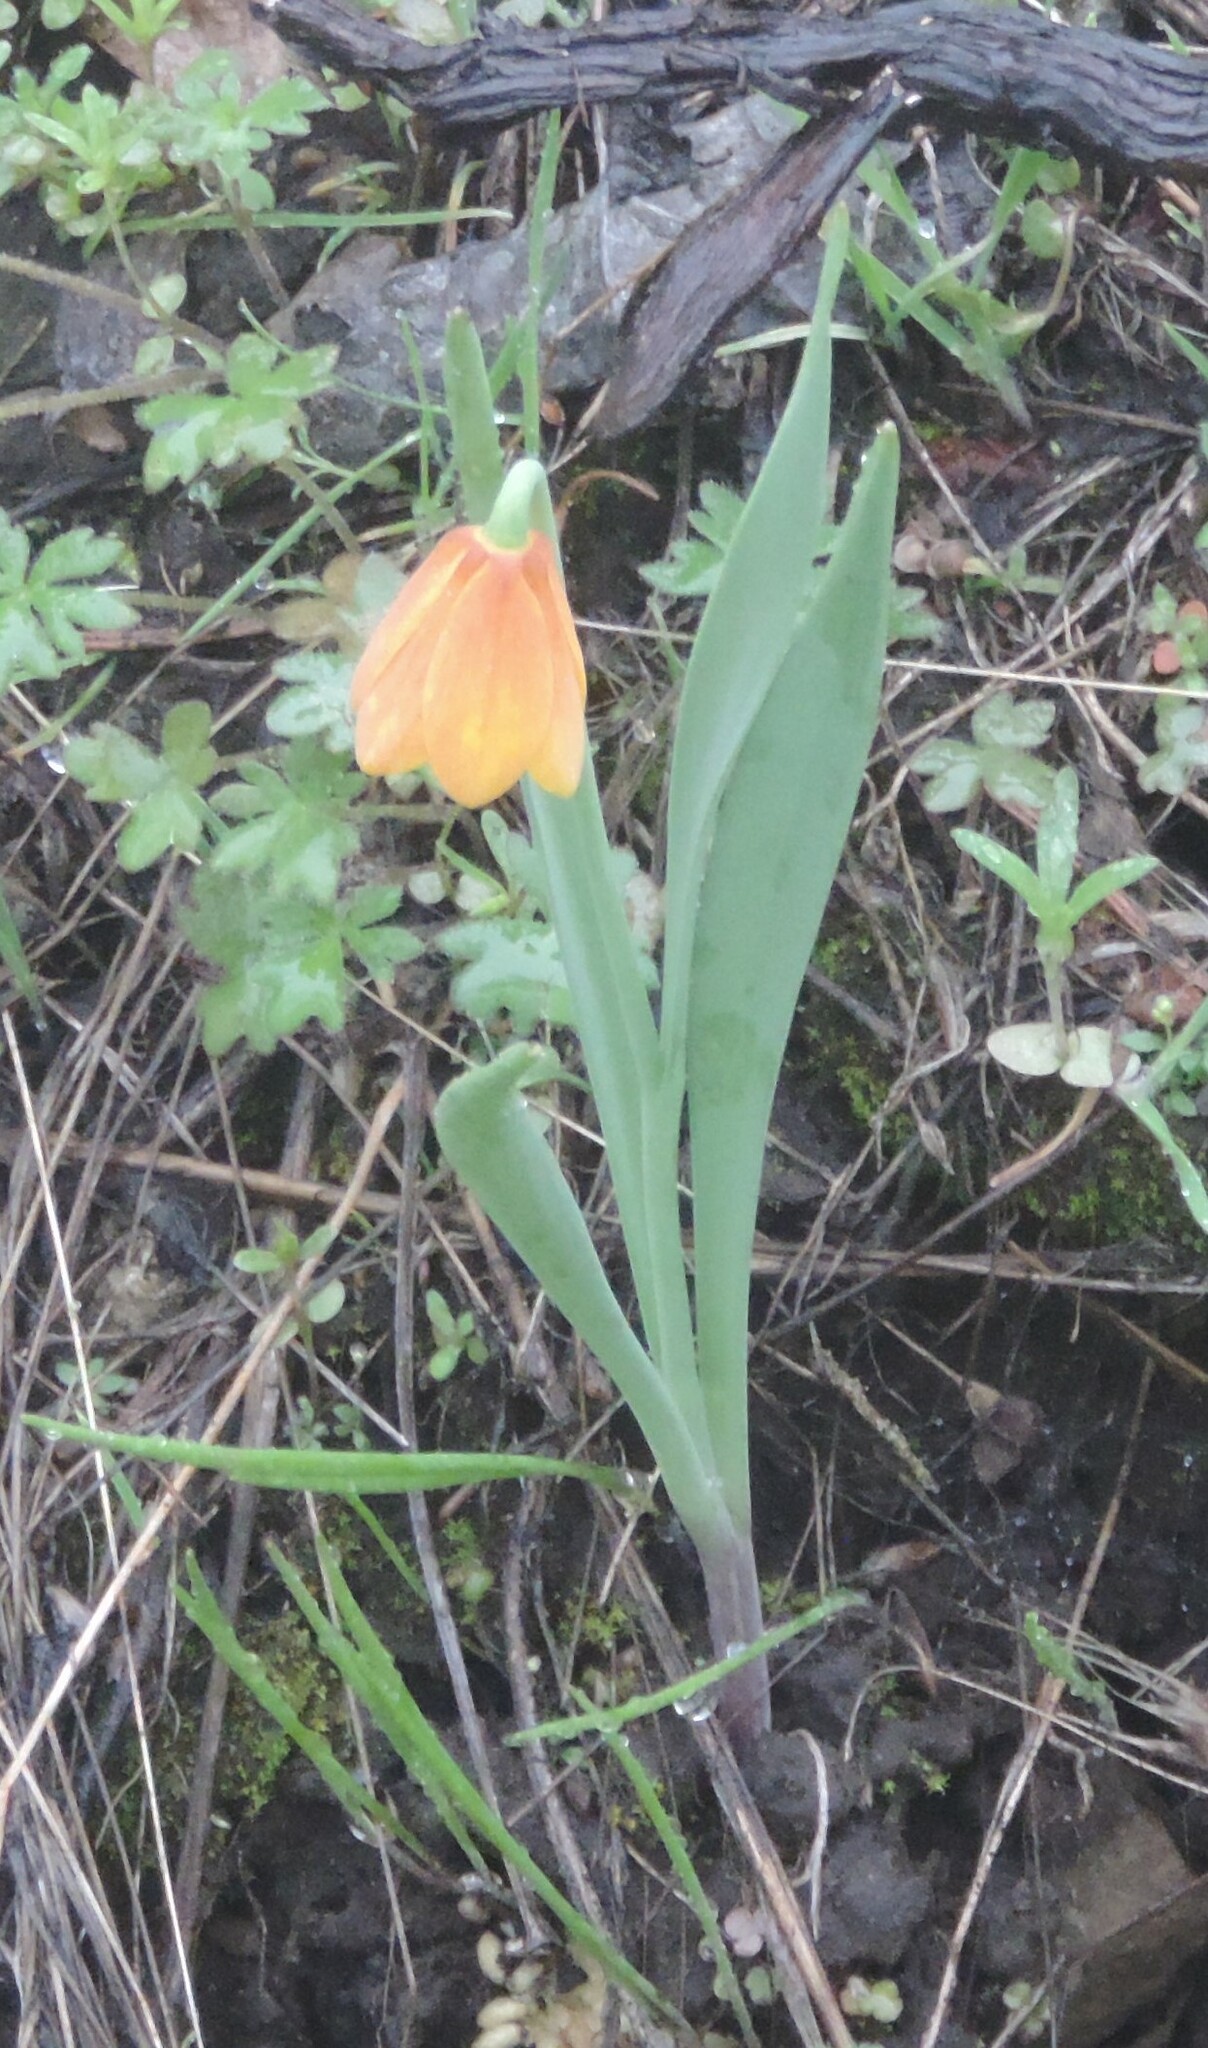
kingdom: Plantae
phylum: Tracheophyta
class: Liliopsida
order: Liliales
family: Liliaceae
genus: Fritillaria
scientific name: Fritillaria pudica
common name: Yellow fritillary
